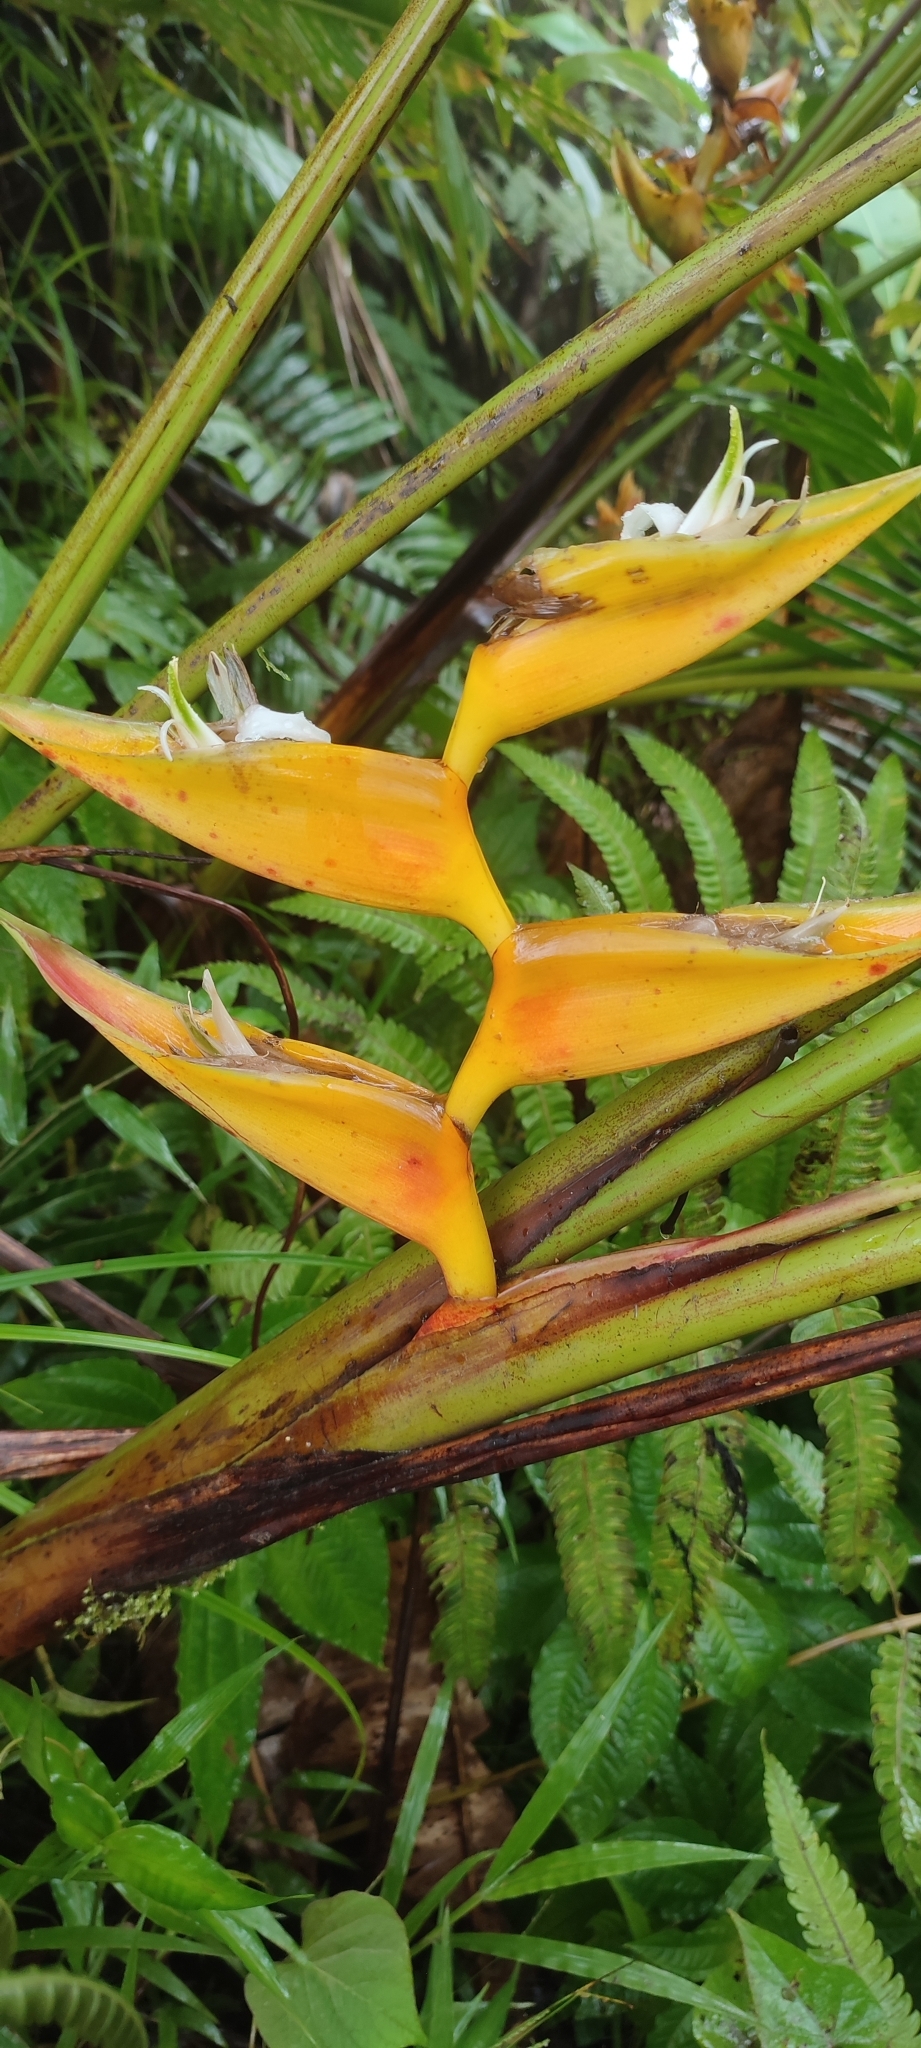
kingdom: Plantae
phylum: Tracheophyta
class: Liliopsida
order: Zingiberales
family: Heliconiaceae
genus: Heliconia
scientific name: Heliconia bihai
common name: Macaw flower
